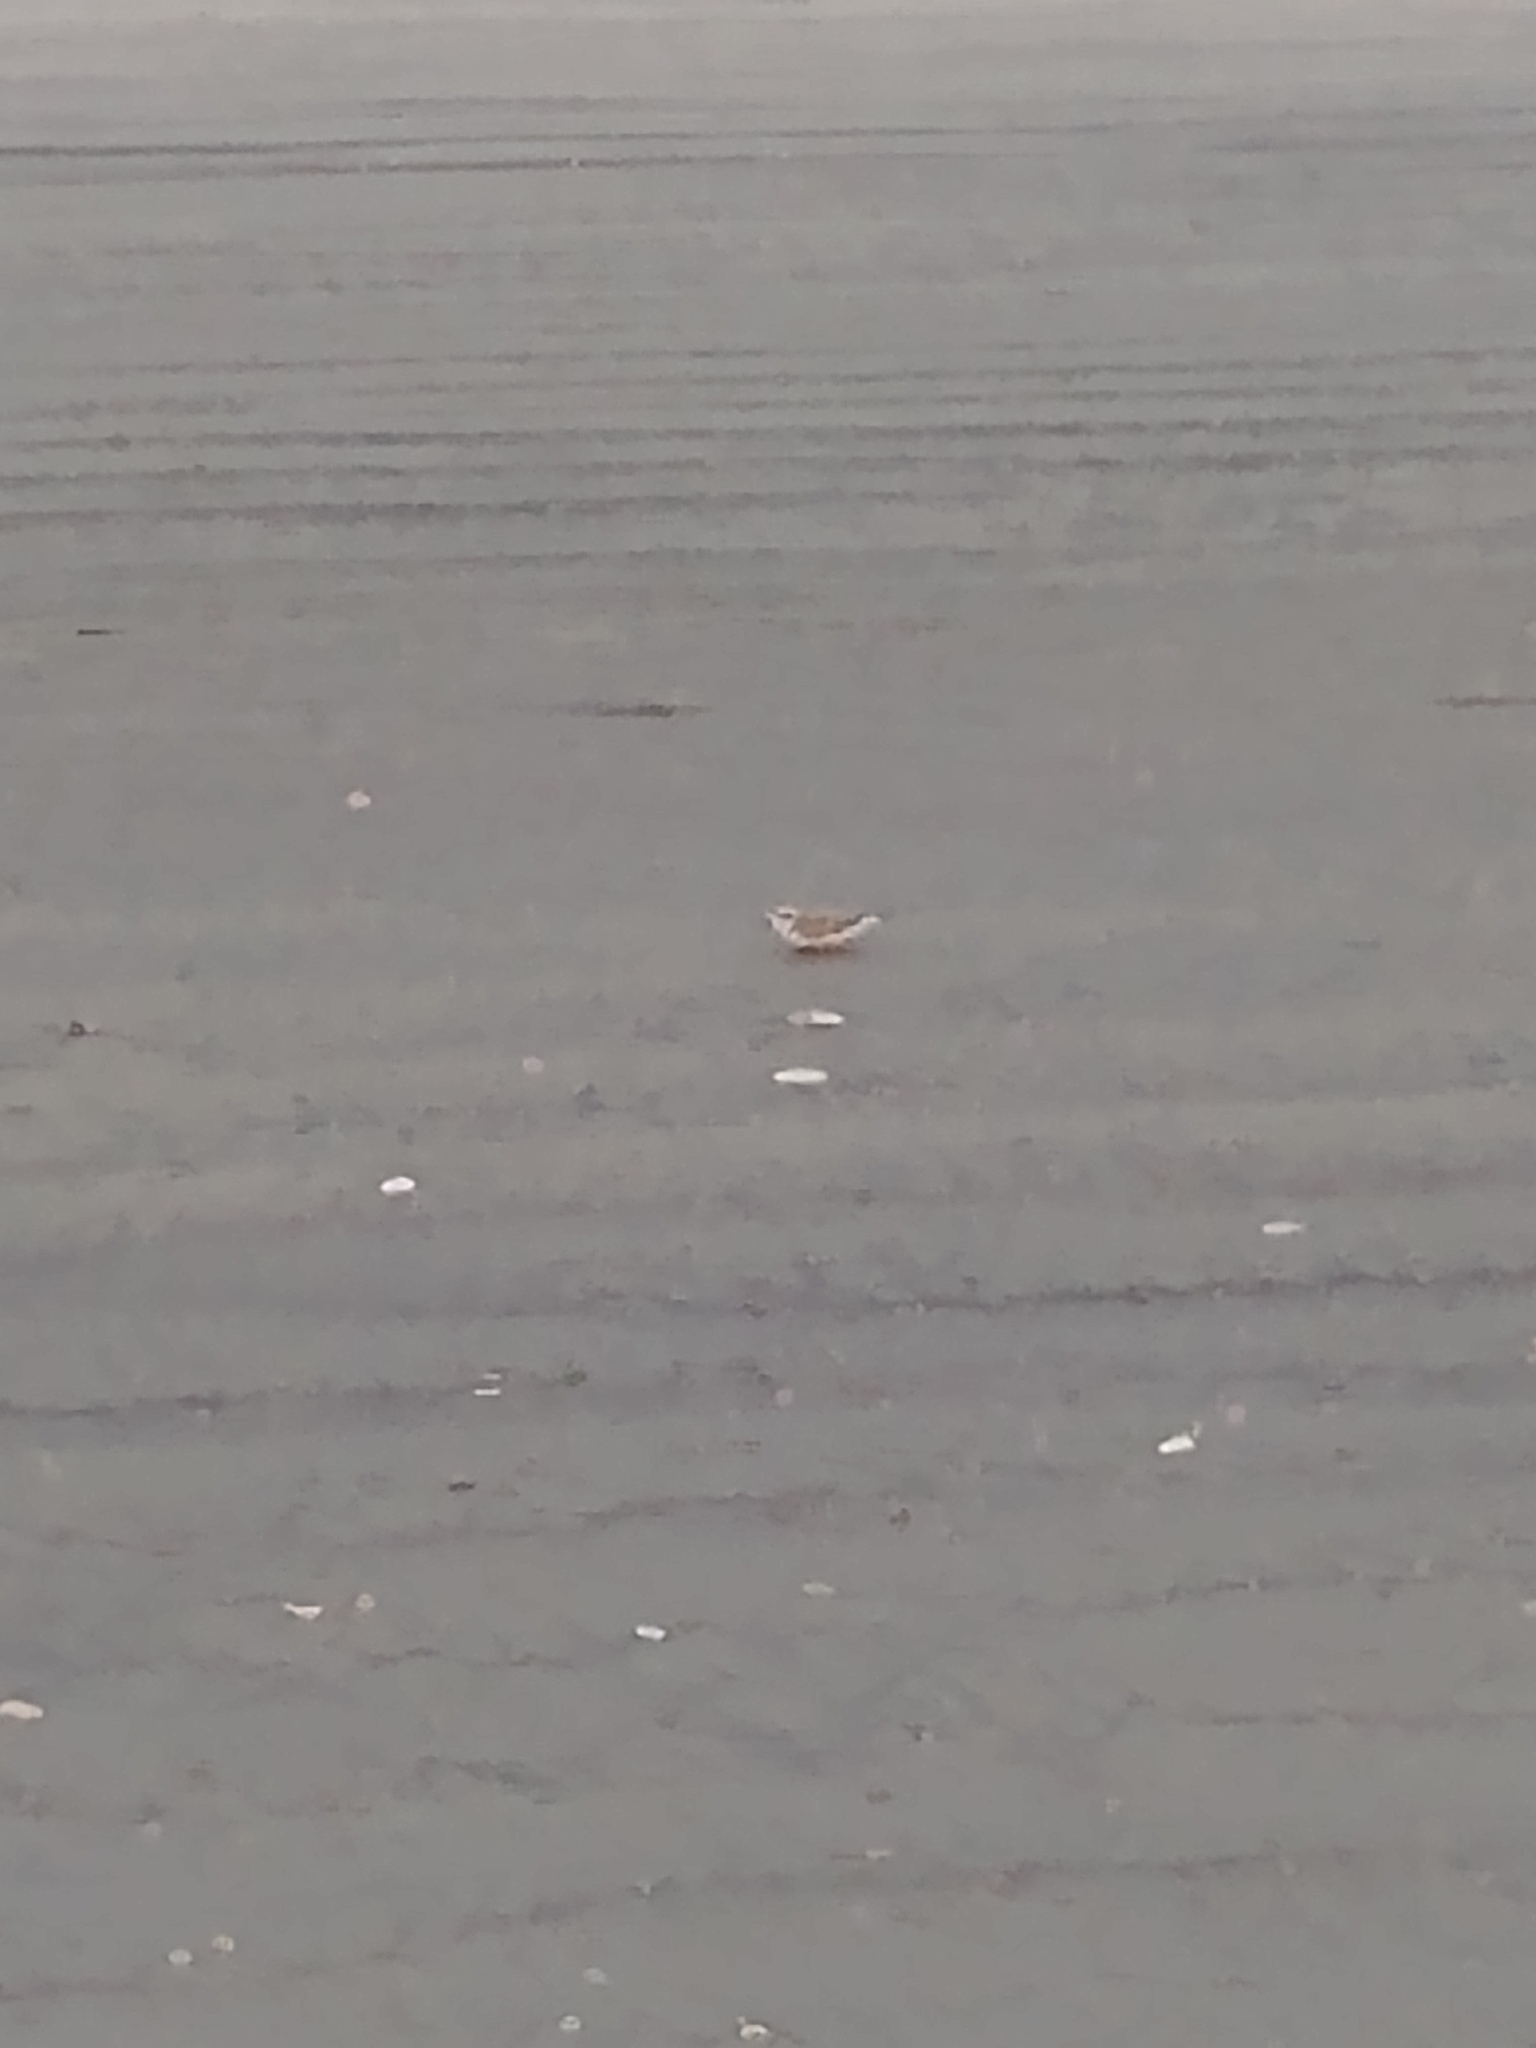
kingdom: Animalia
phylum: Chordata
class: Aves
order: Charadriiformes
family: Charadriidae
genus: Anarhynchus
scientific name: Anarhynchus
